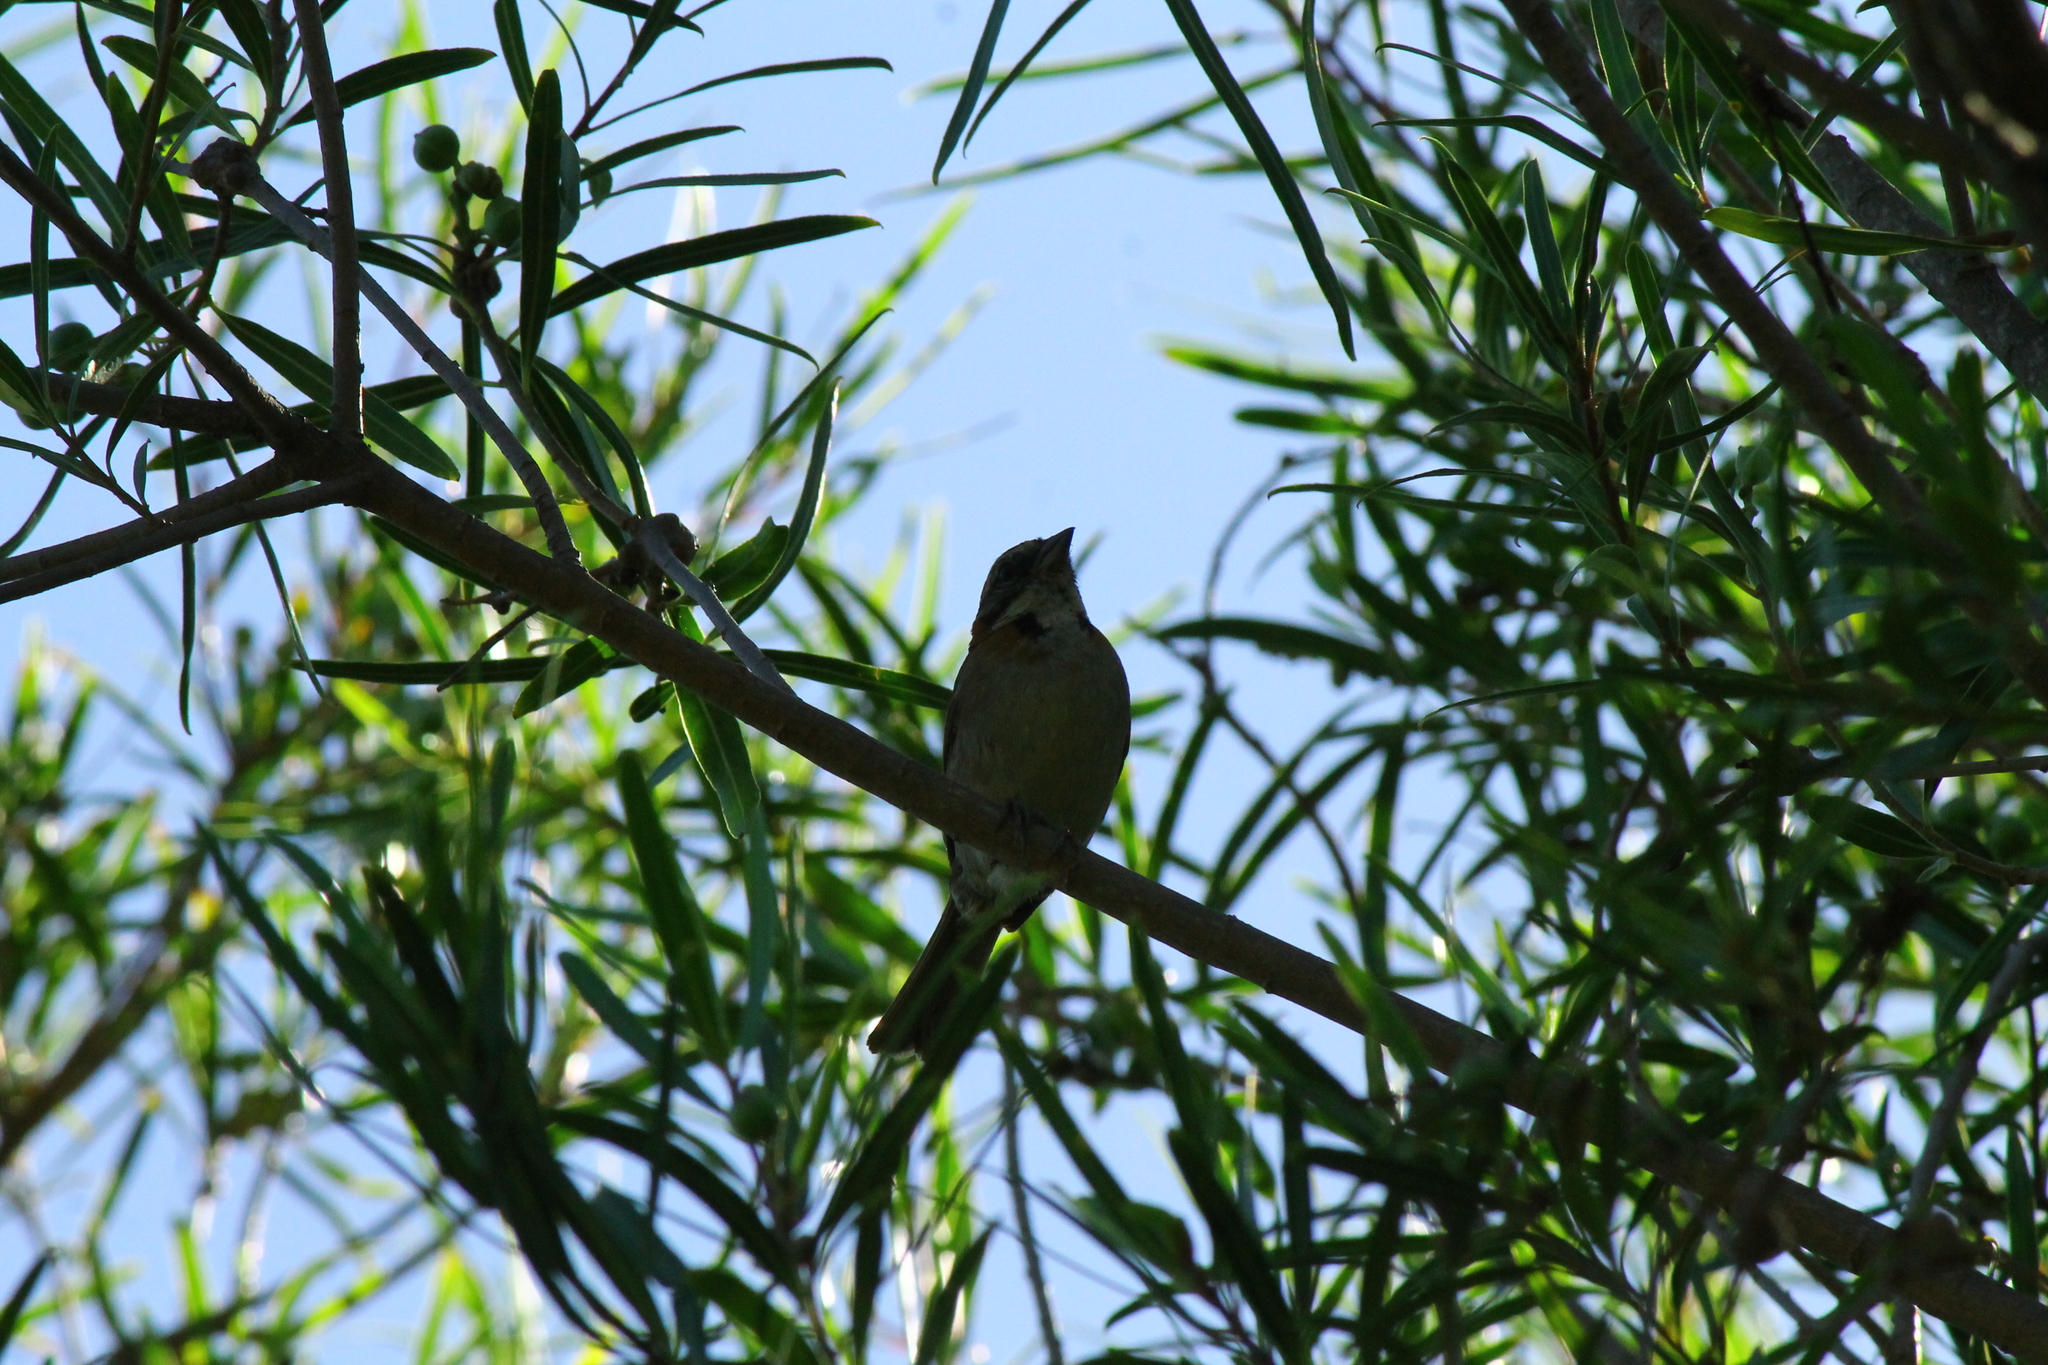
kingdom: Animalia
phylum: Chordata
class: Aves
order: Passeriformes
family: Passerellidae
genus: Zonotrichia
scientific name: Zonotrichia capensis
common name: Rufous-collared sparrow
